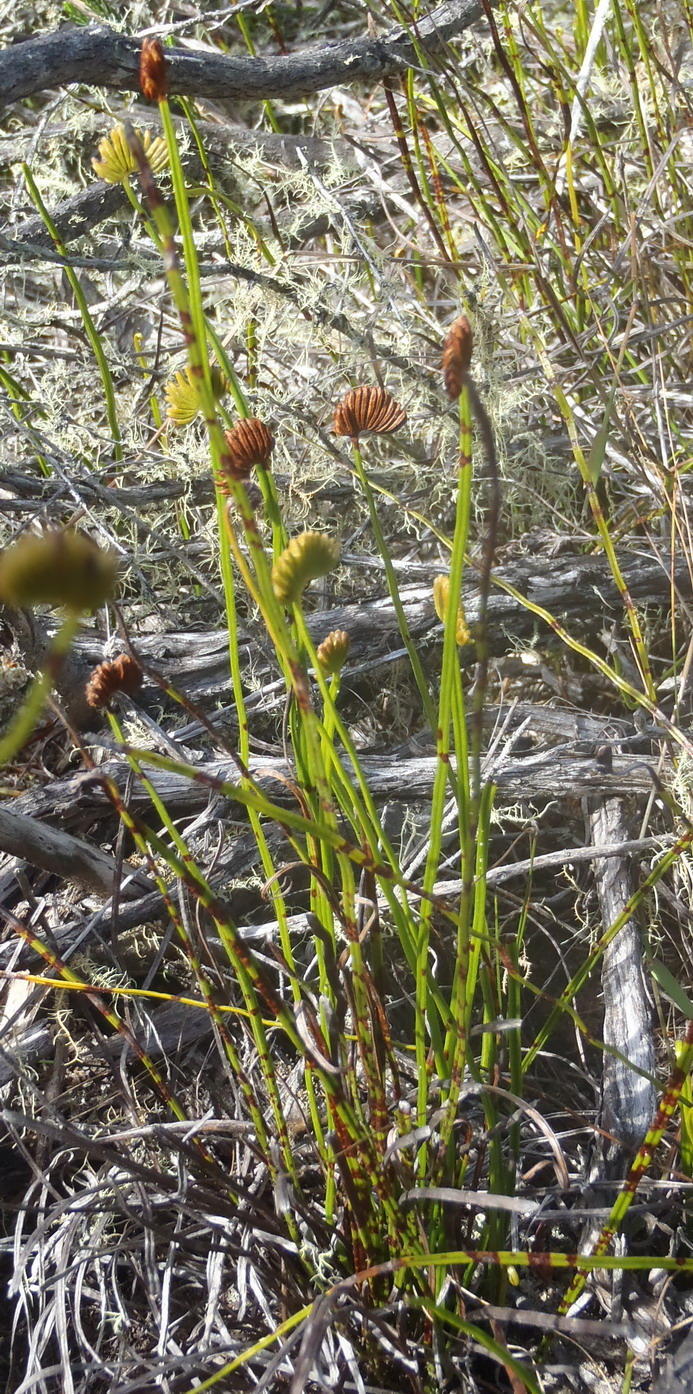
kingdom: Plantae
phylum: Tracheophyta
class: Polypodiopsida
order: Schizaeales
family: Schizaeaceae
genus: Schizaea
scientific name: Schizaea pectinata
